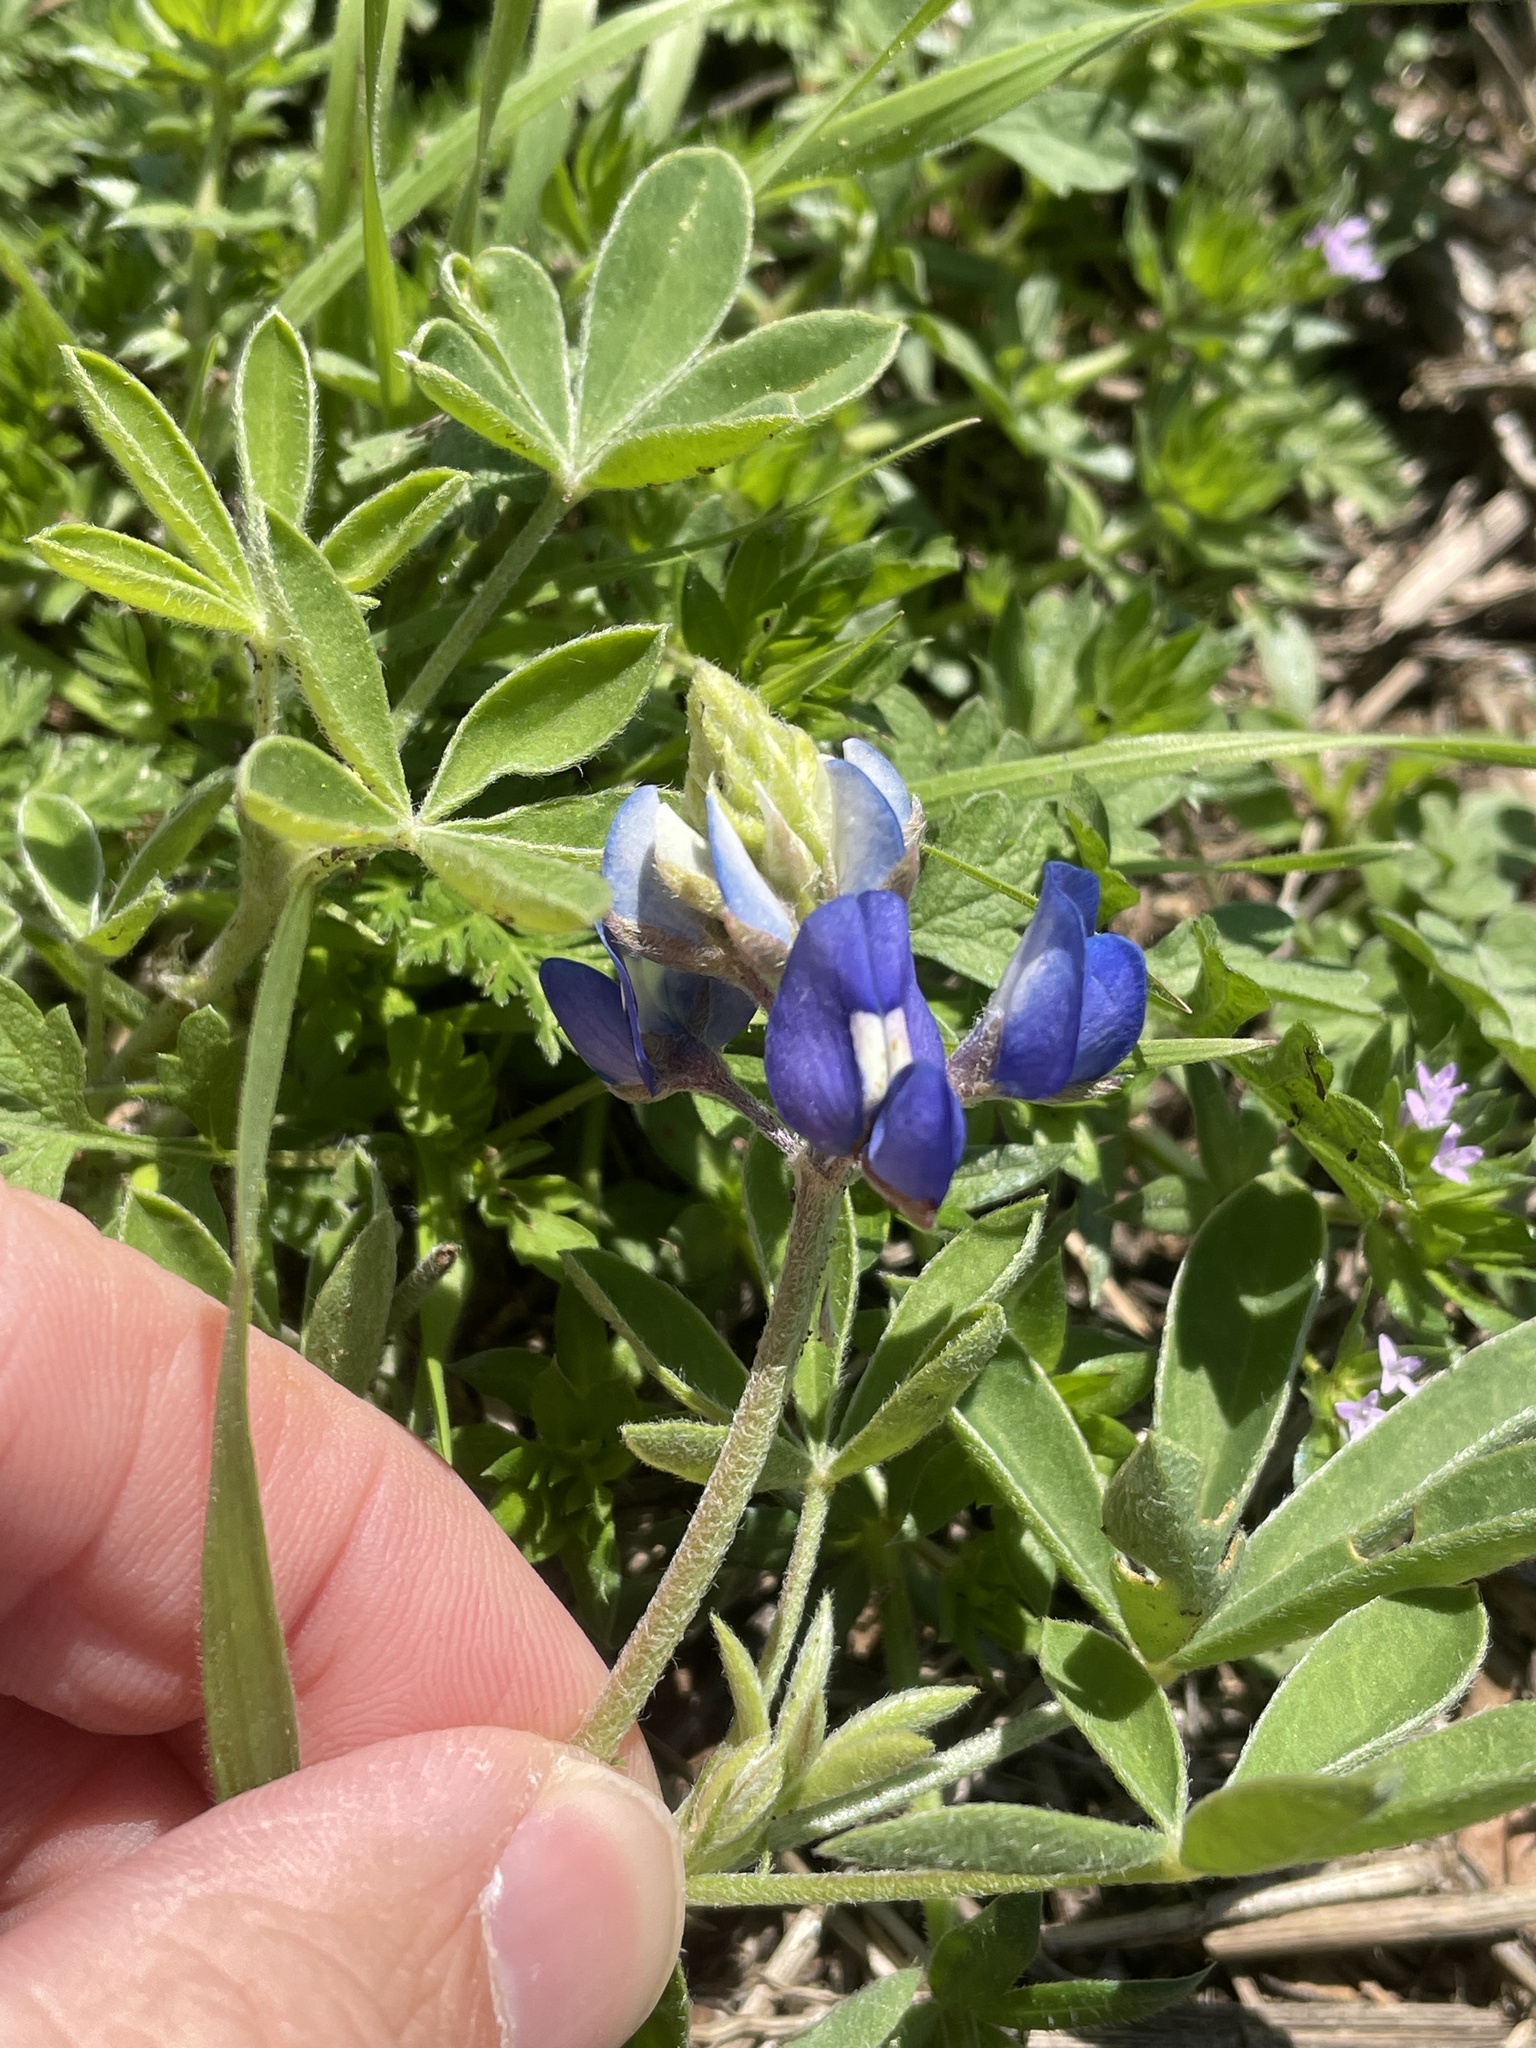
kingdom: Plantae
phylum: Tracheophyta
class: Magnoliopsida
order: Fabales
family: Fabaceae
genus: Lupinus
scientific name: Lupinus texensis
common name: Texas bluebonnet
